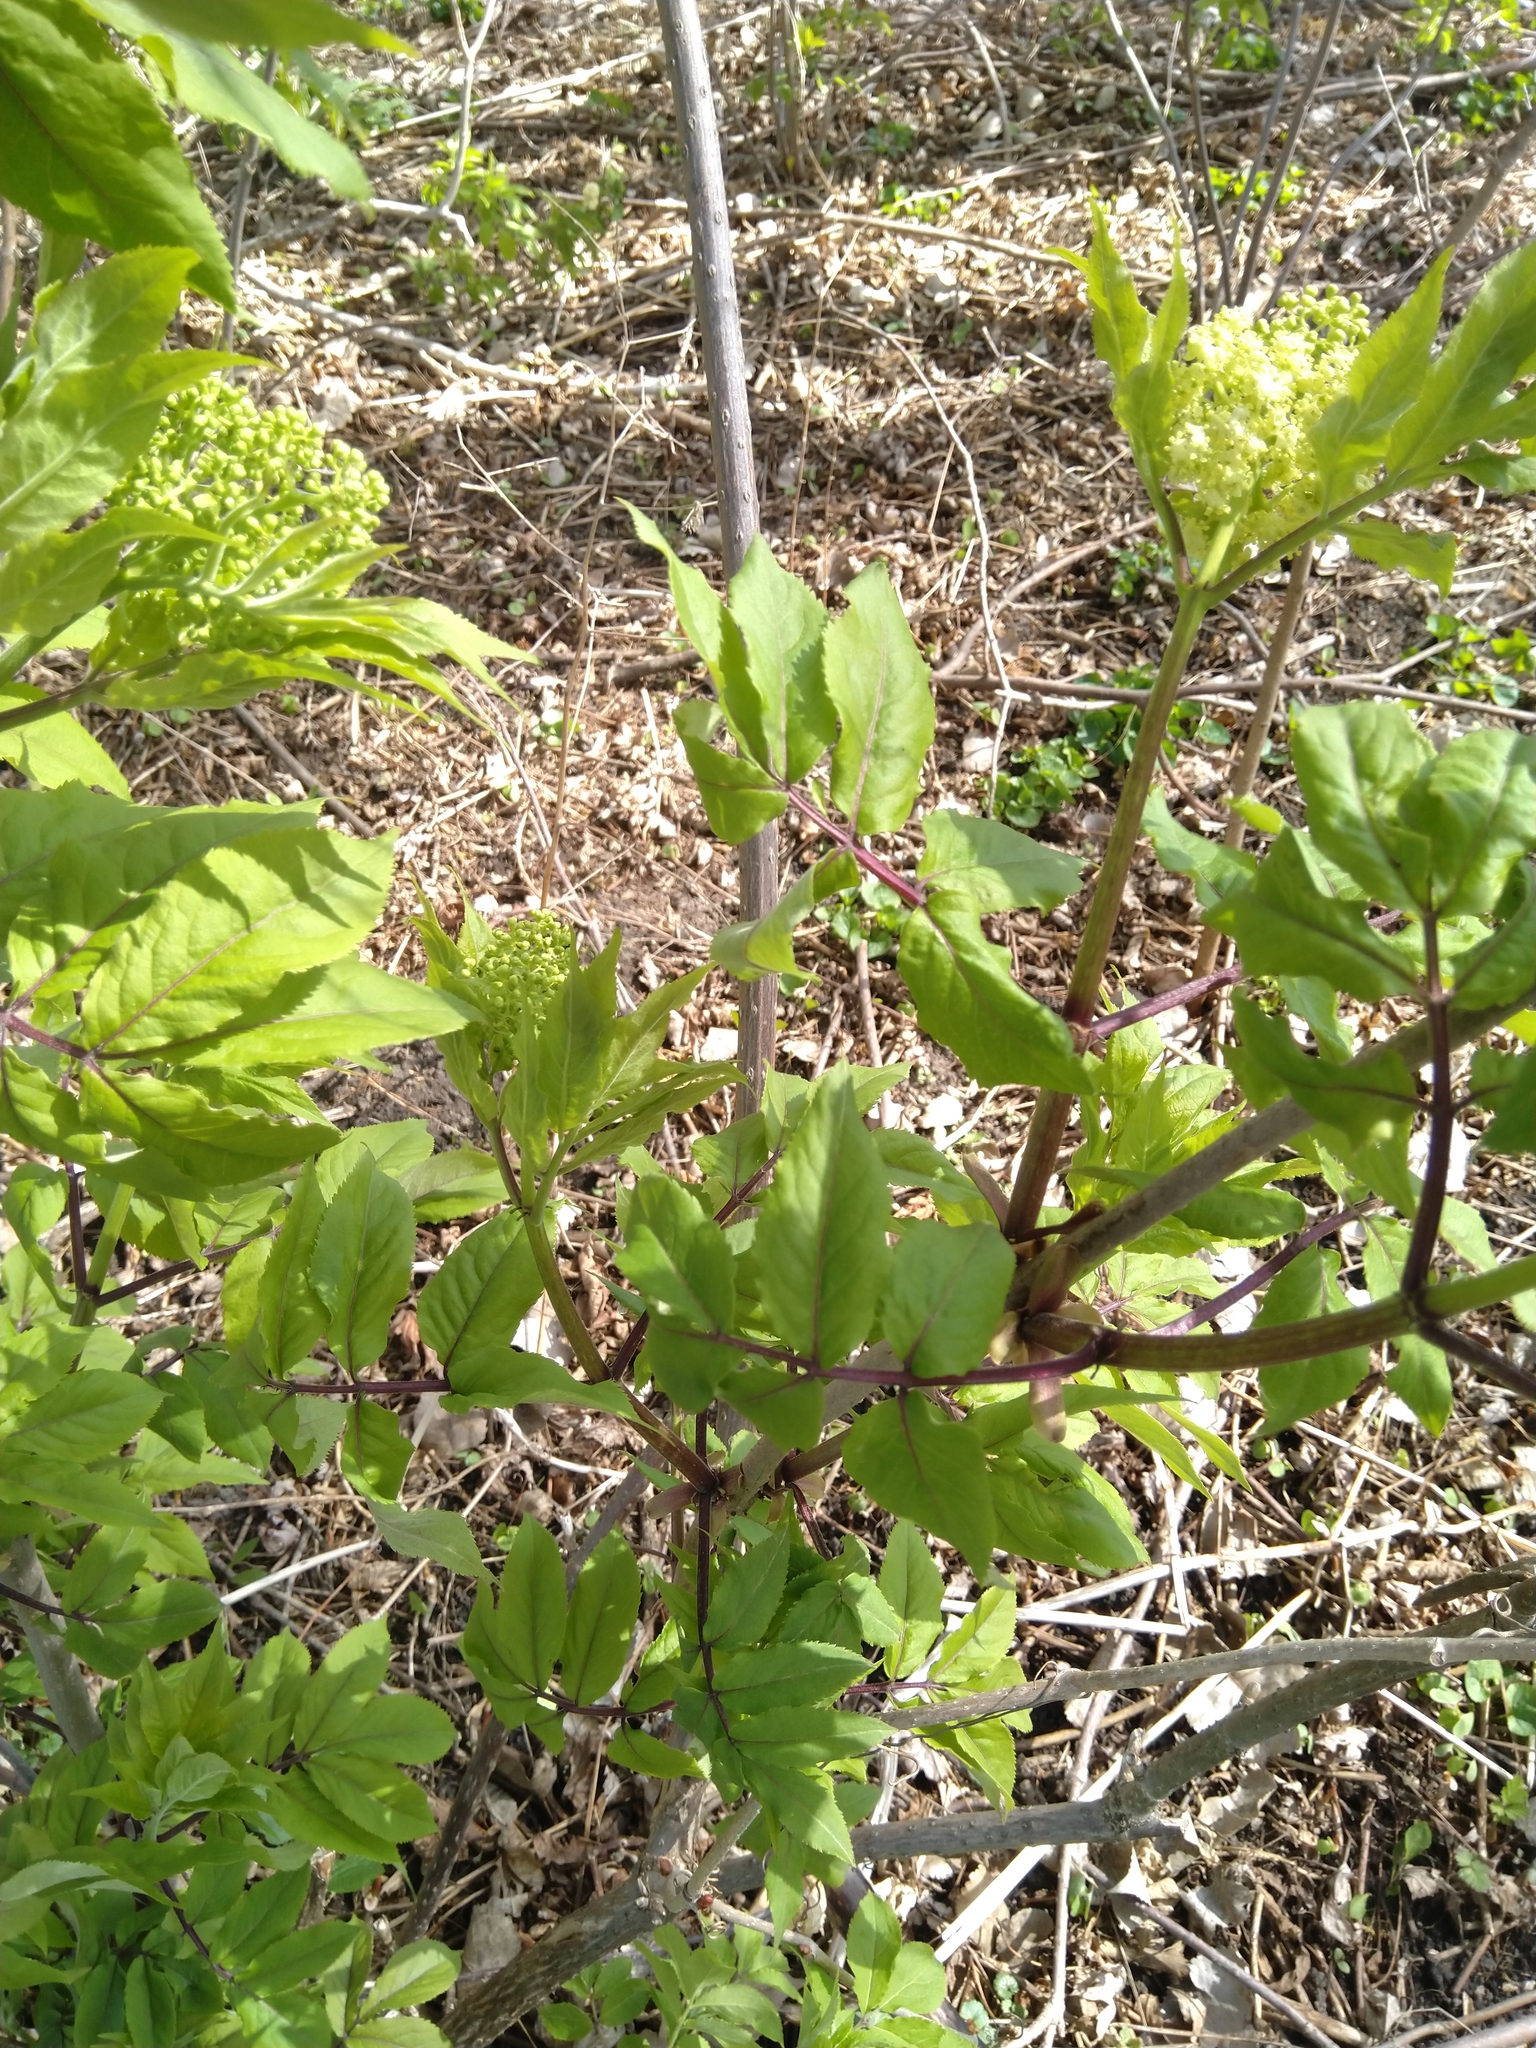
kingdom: Plantae
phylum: Tracheophyta
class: Magnoliopsida
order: Dipsacales
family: Viburnaceae
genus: Sambucus
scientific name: Sambucus racemosa
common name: Red-berried elder
